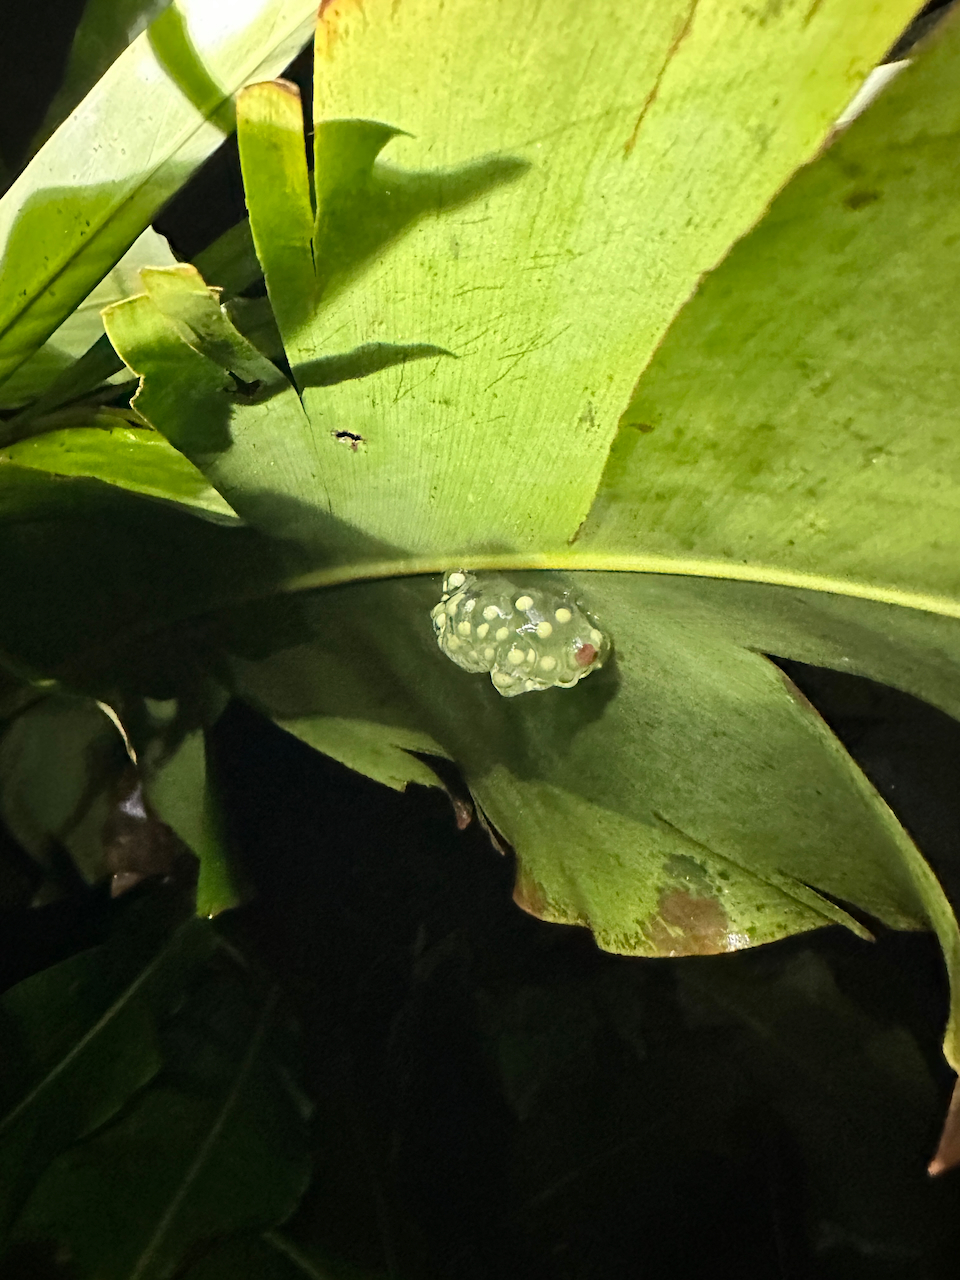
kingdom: Animalia
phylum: Chordata
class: Amphibia
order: Anura
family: Phyllomedusidae
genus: Agalychnis
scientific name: Agalychnis callidryas
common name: Red-eyed treefrog
